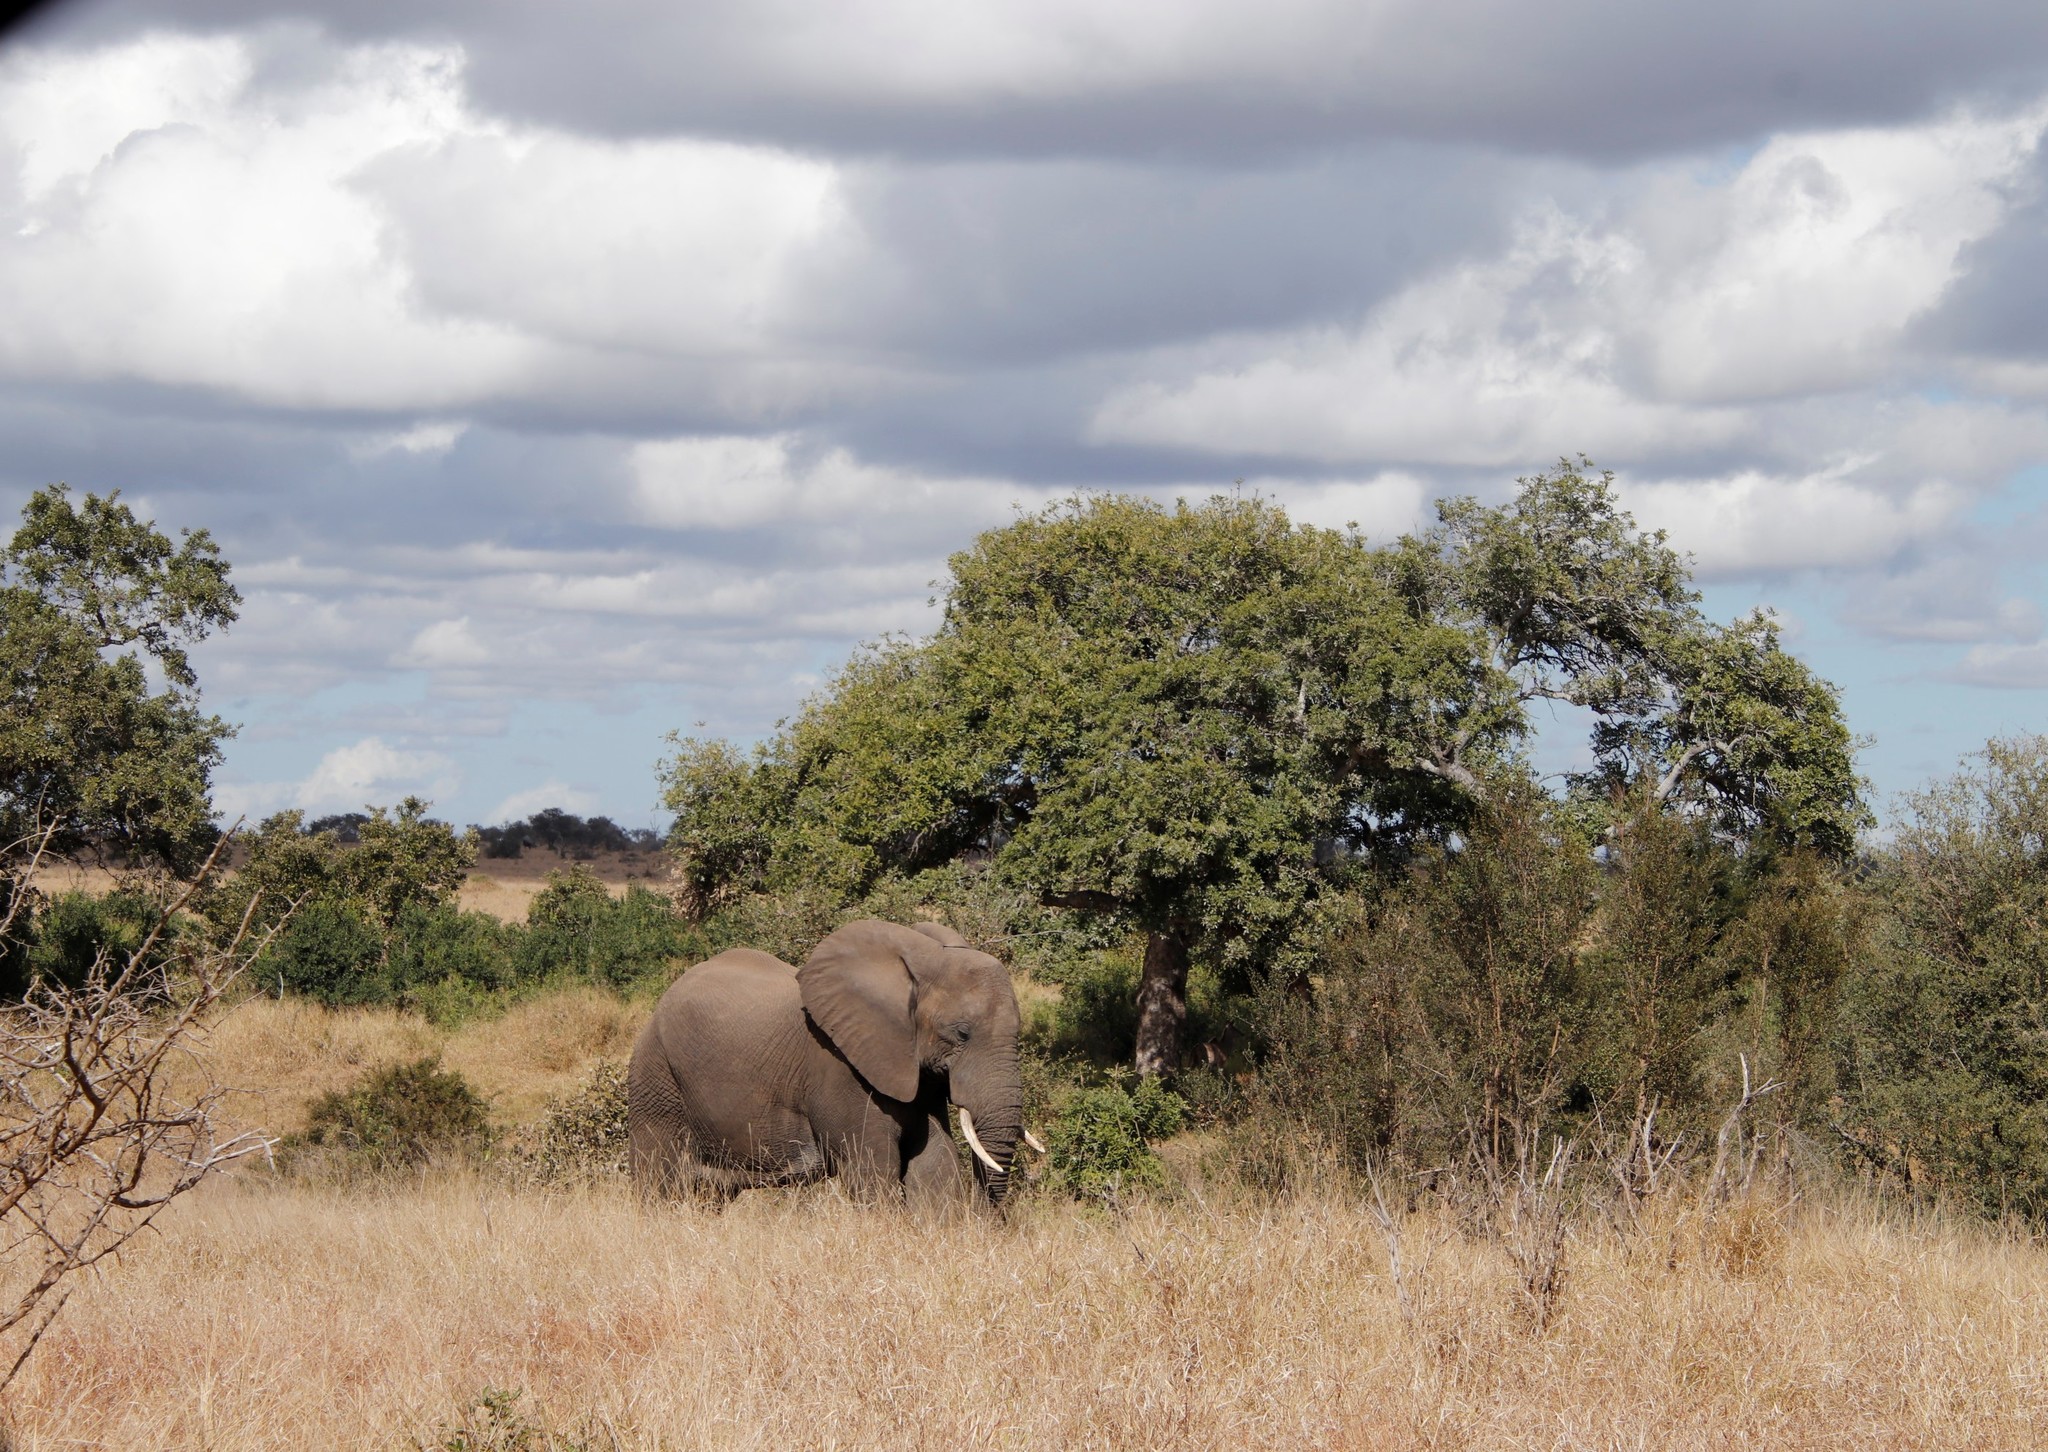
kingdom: Plantae
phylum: Tracheophyta
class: Magnoliopsida
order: Myrtales
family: Combretaceae
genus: Combretum
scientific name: Combretum imberbe
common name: Leadwood
